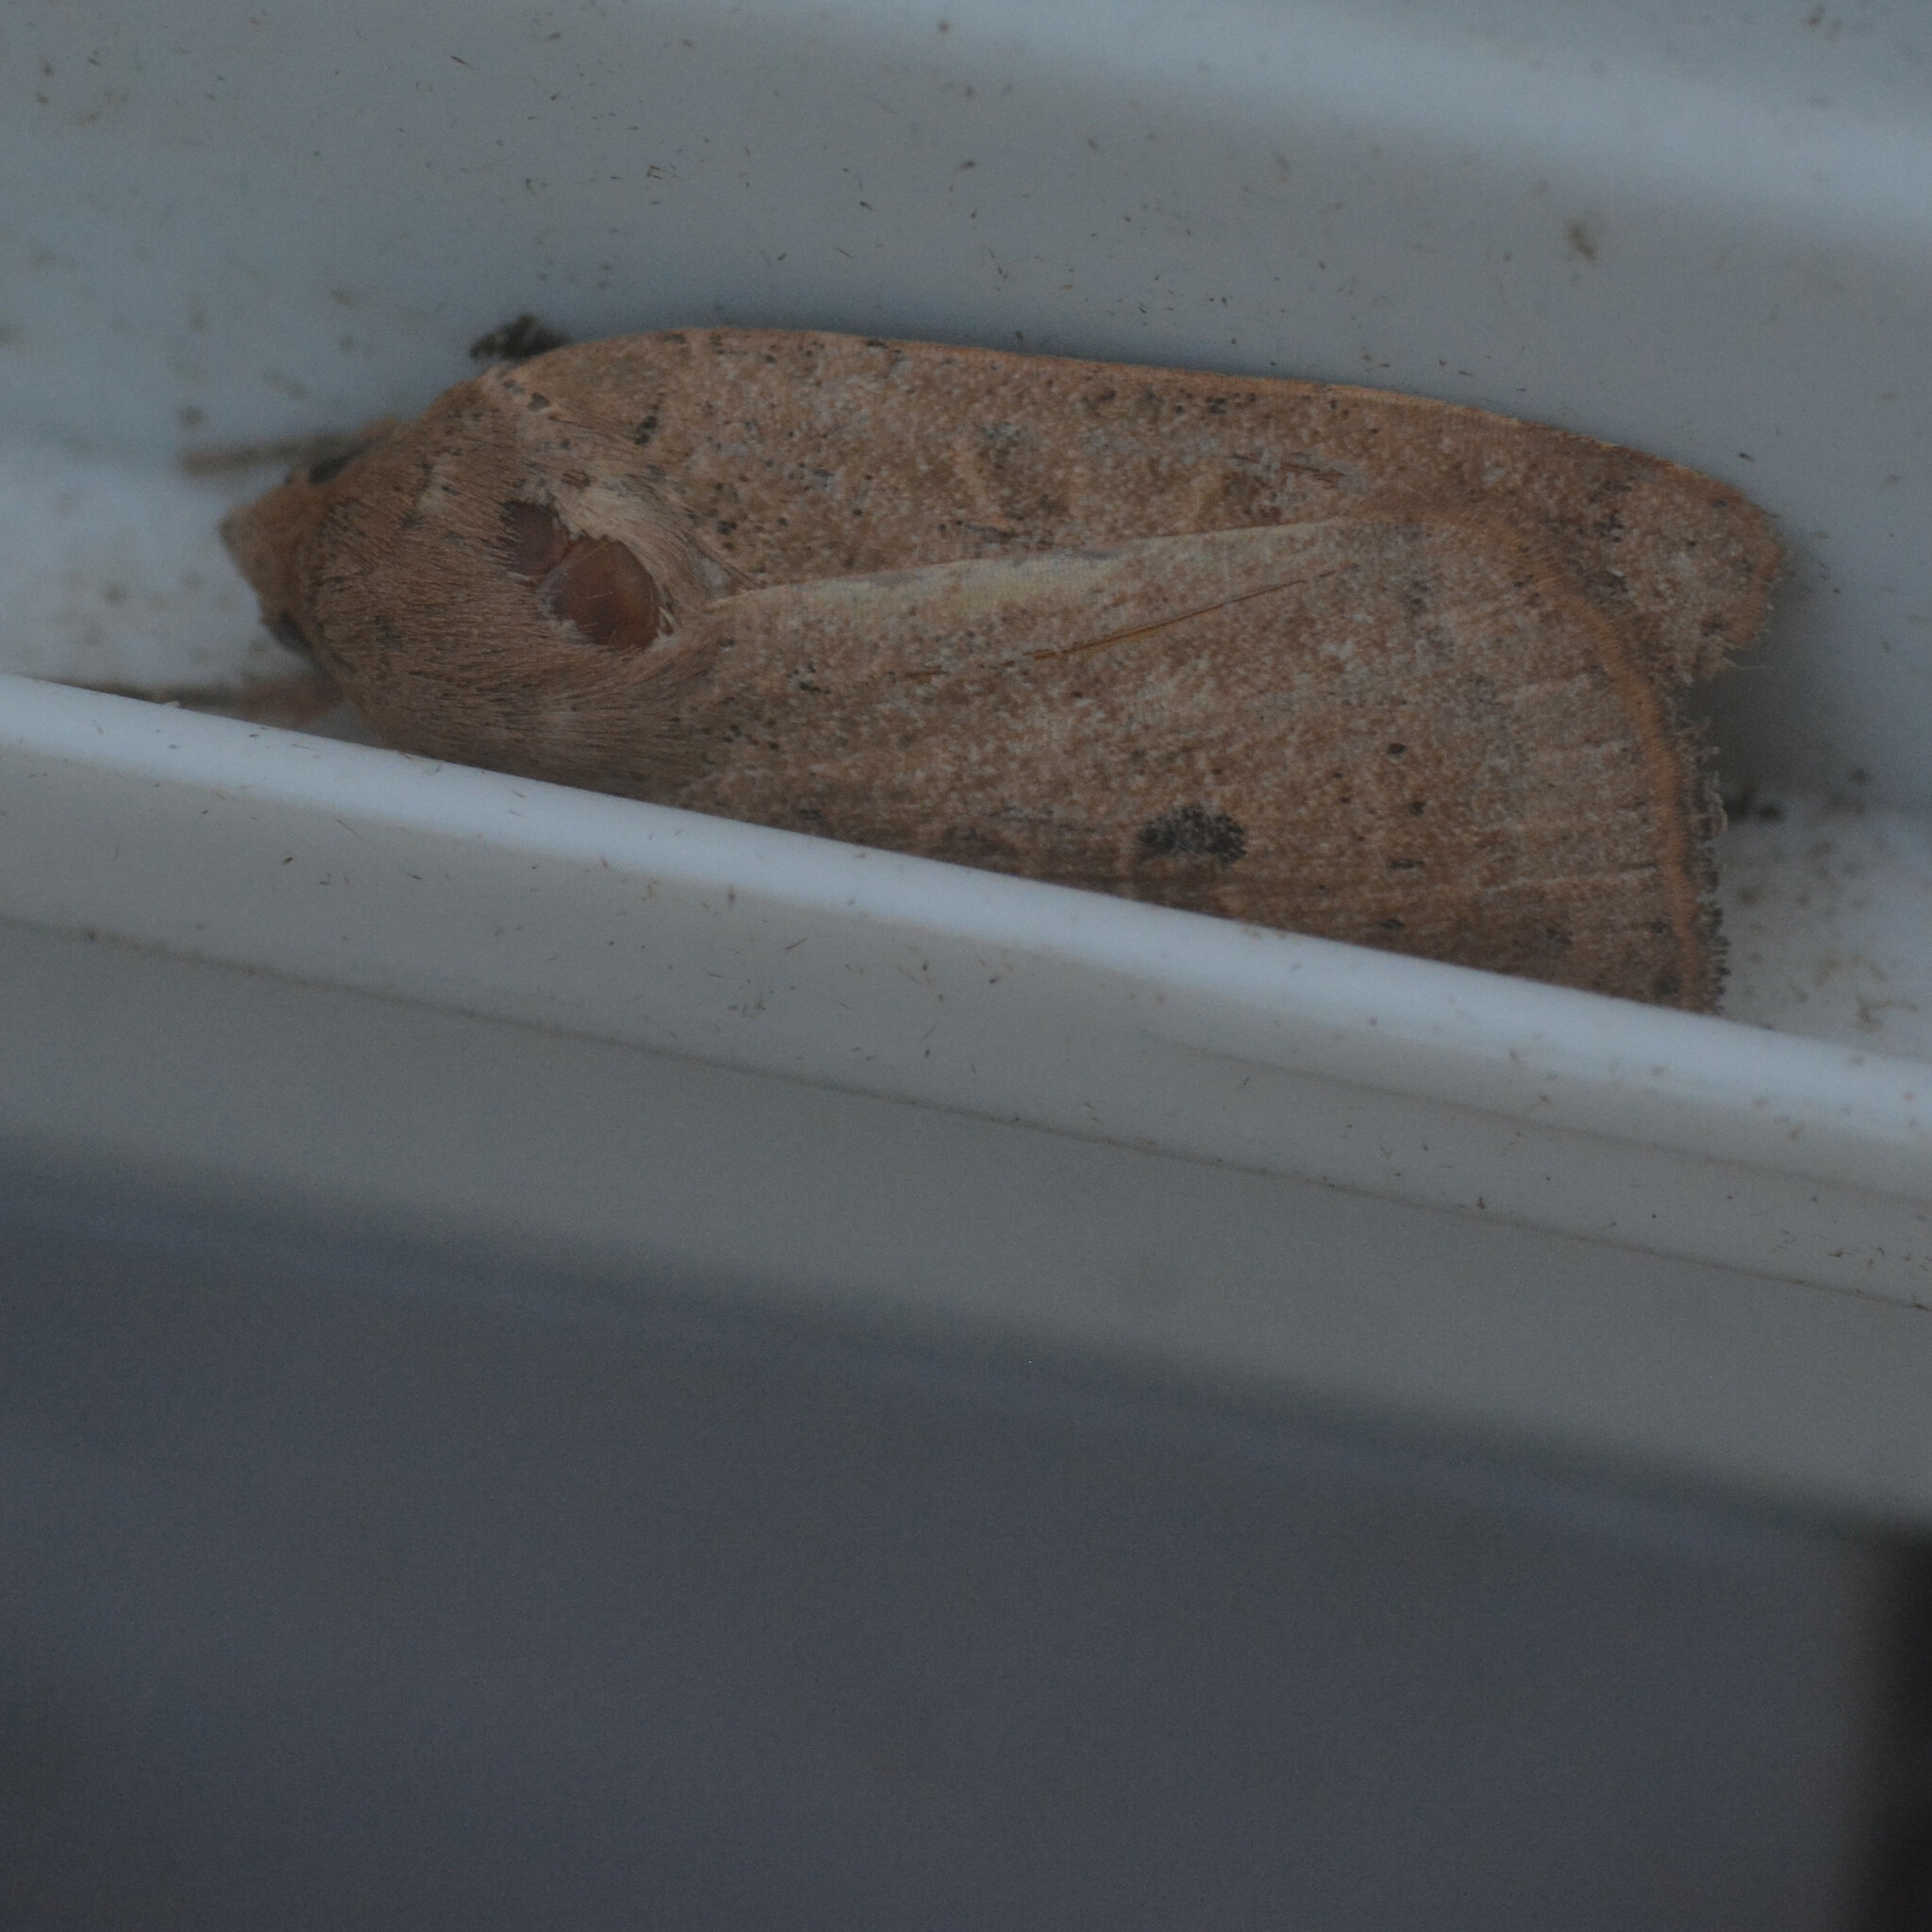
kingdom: Animalia
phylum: Arthropoda
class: Insecta
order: Lepidoptera
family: Noctuidae
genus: Noctua
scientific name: Noctua comes
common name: Lesser yellow underwing
